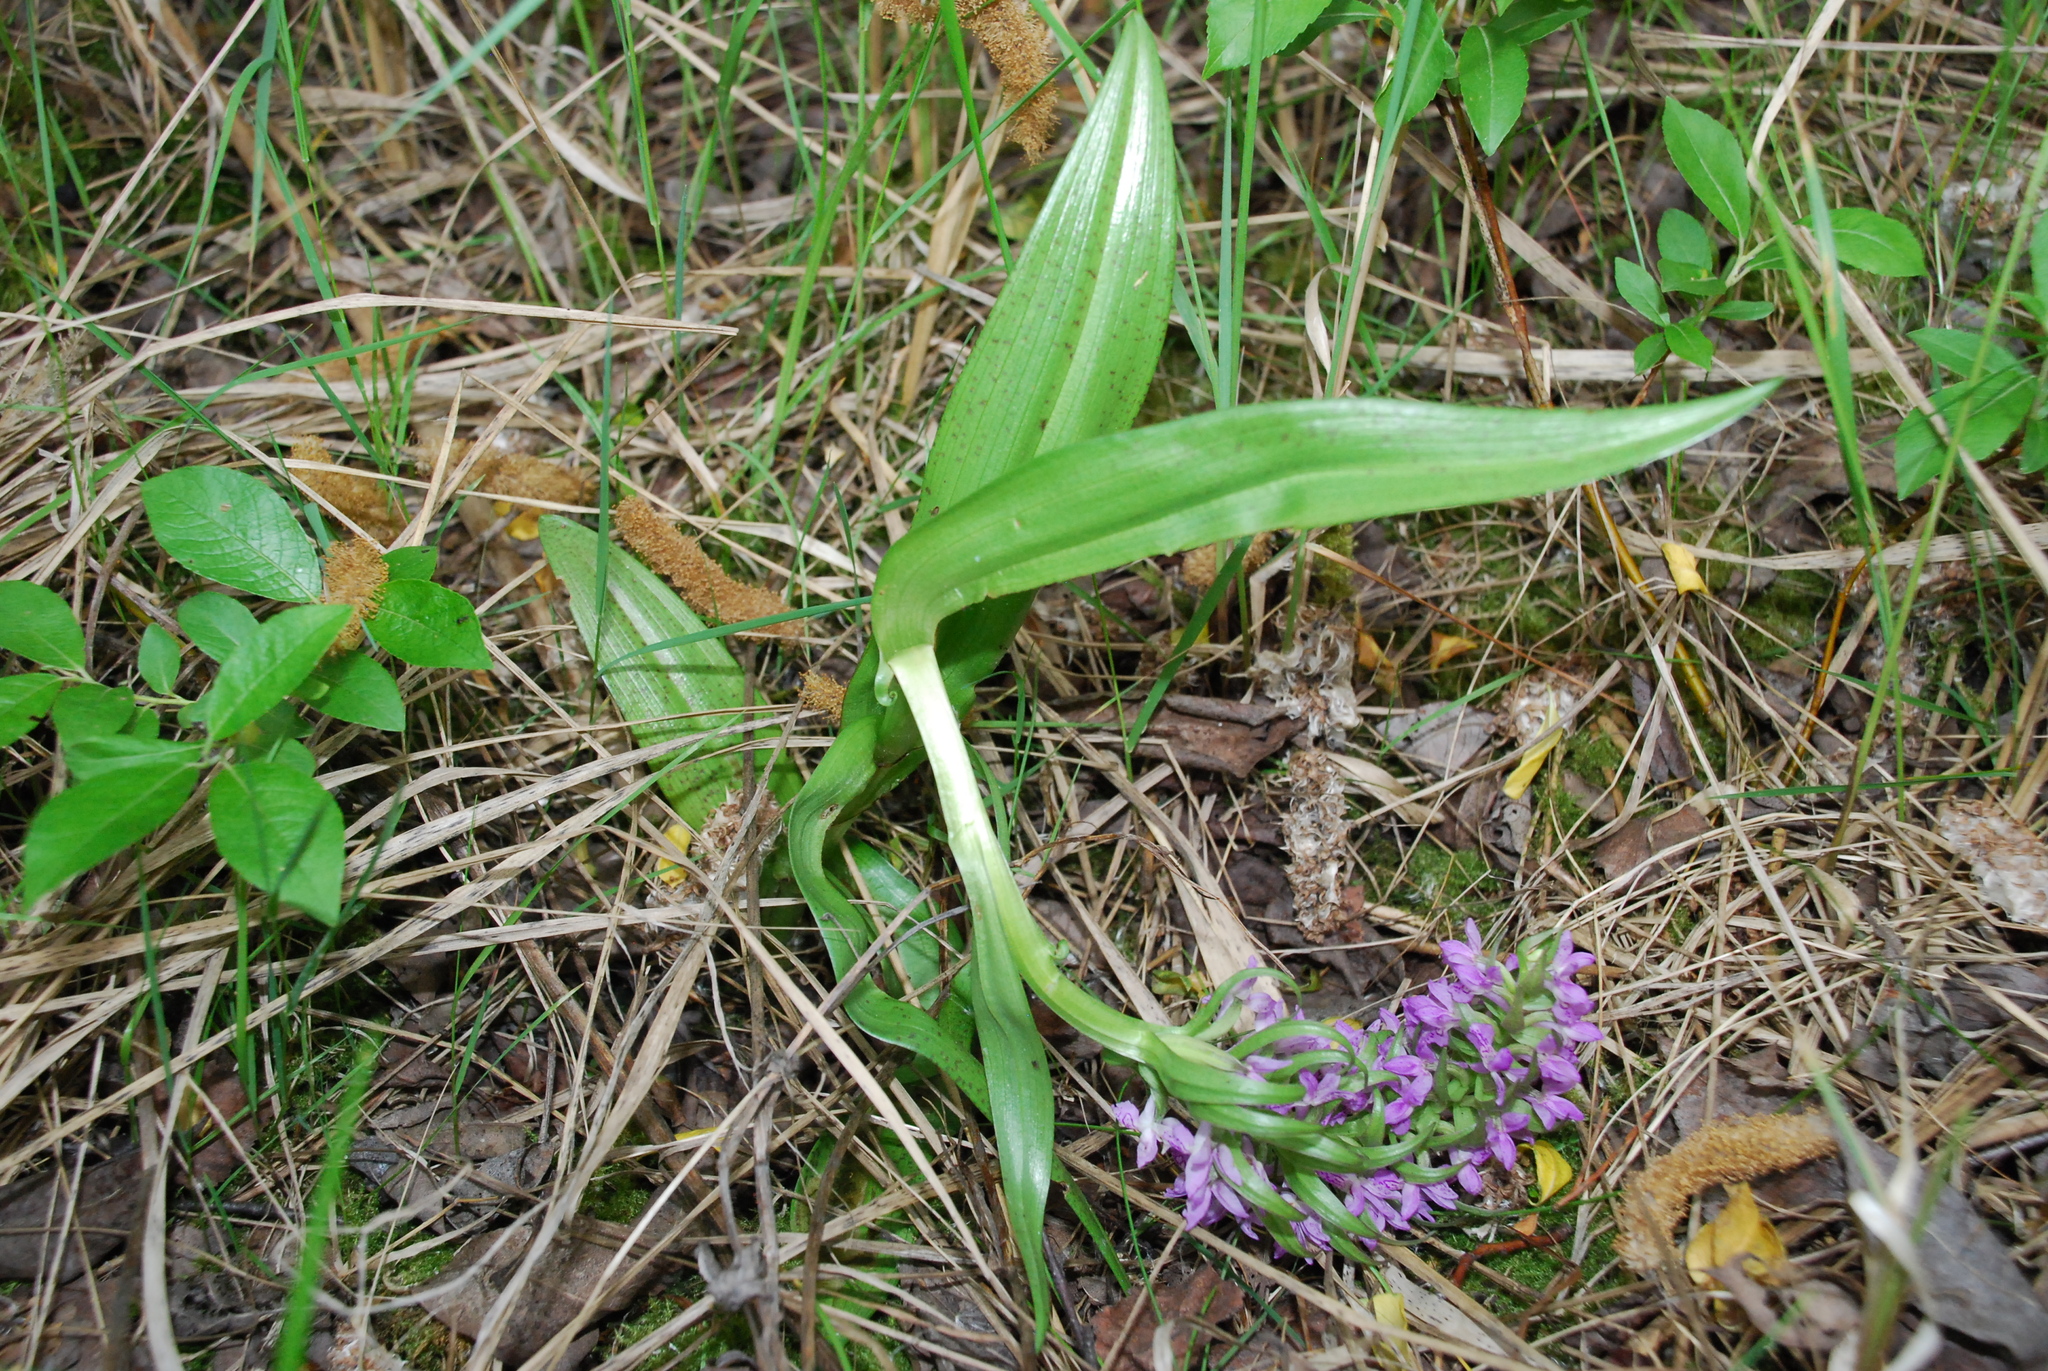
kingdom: Plantae
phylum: Tracheophyta
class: Liliopsida
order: Asparagales
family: Orchidaceae
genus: Dactylorhiza
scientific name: Dactylorhiza incarnata
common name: Early marsh-orchid
